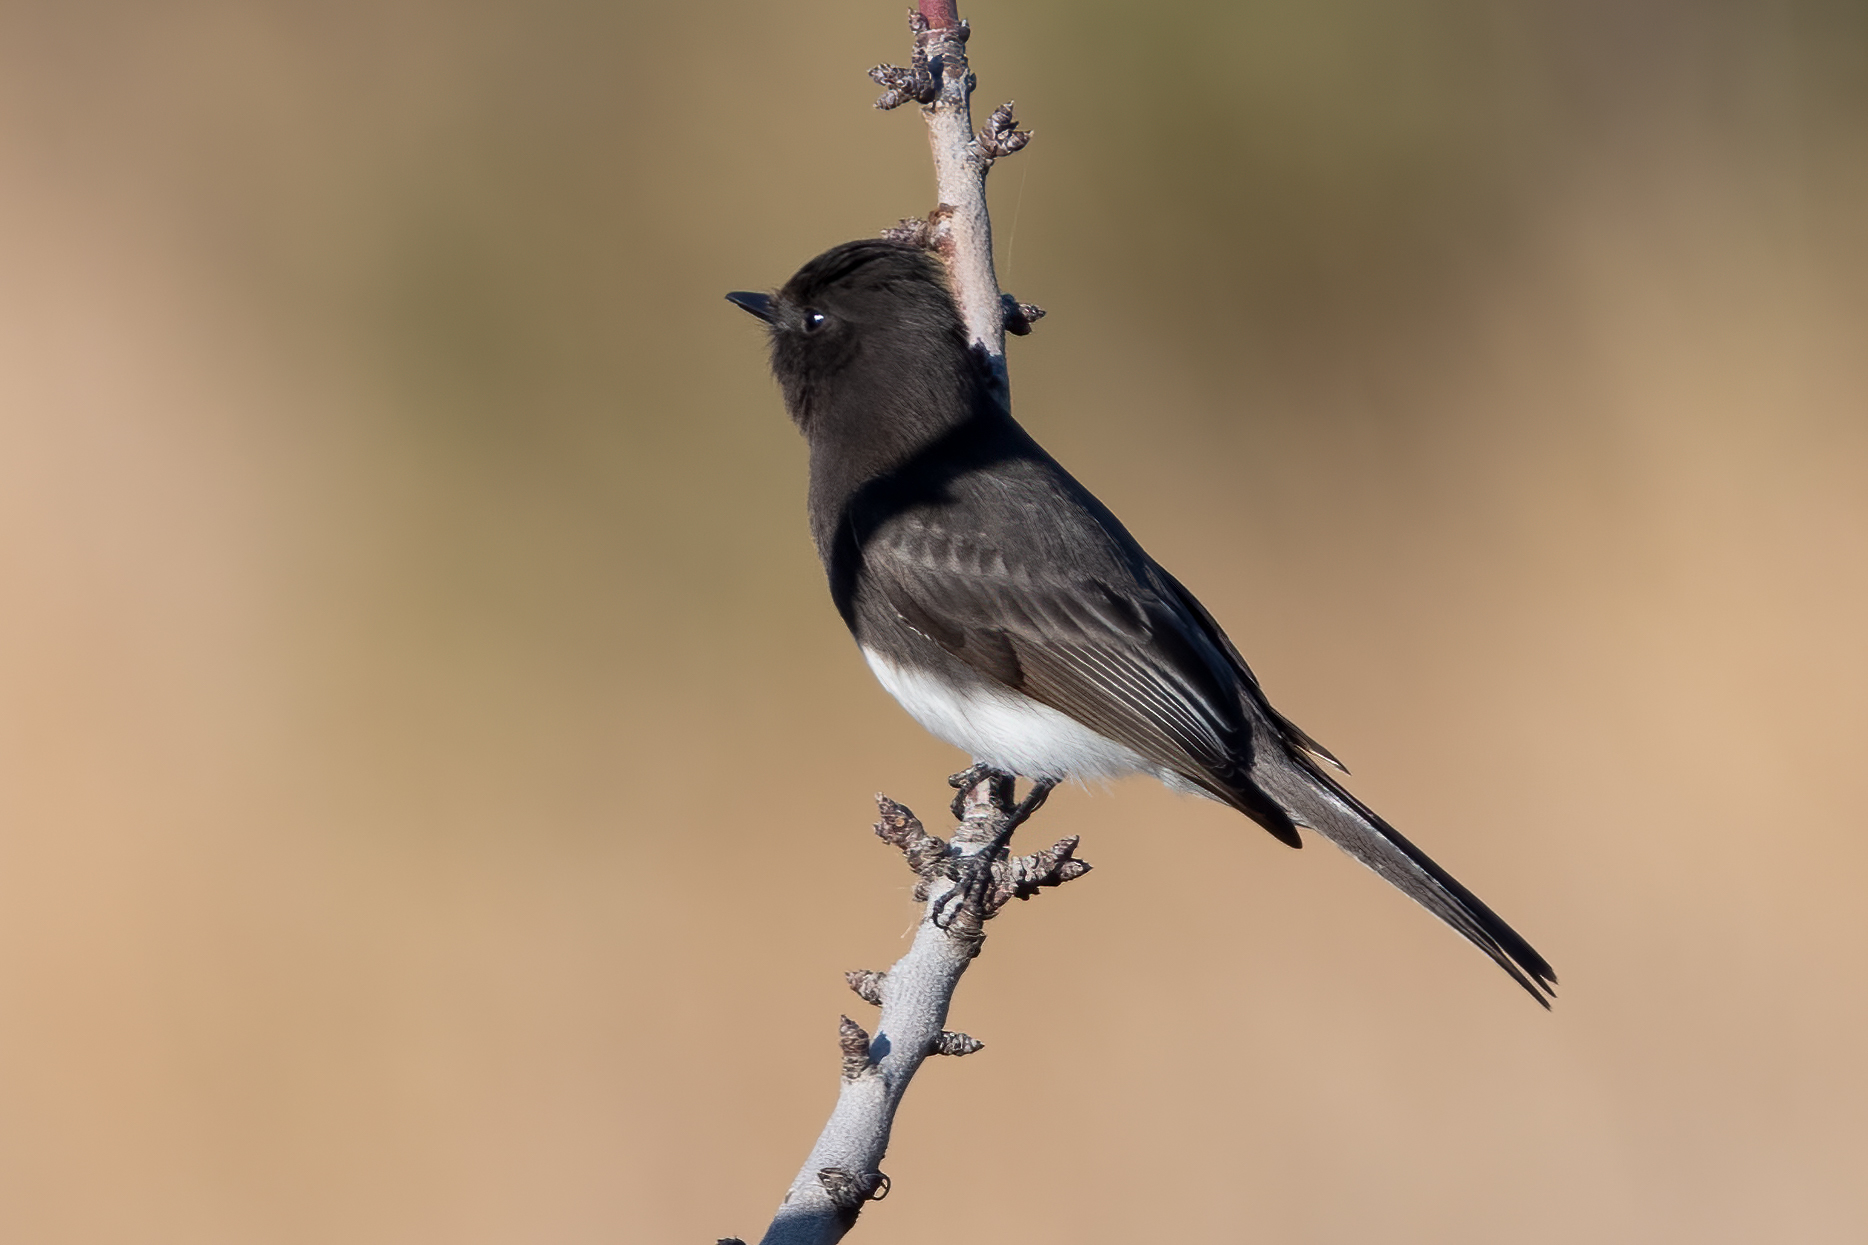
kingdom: Animalia
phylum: Chordata
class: Aves
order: Passeriformes
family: Tyrannidae
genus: Sayornis
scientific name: Sayornis nigricans
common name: Black phoebe
